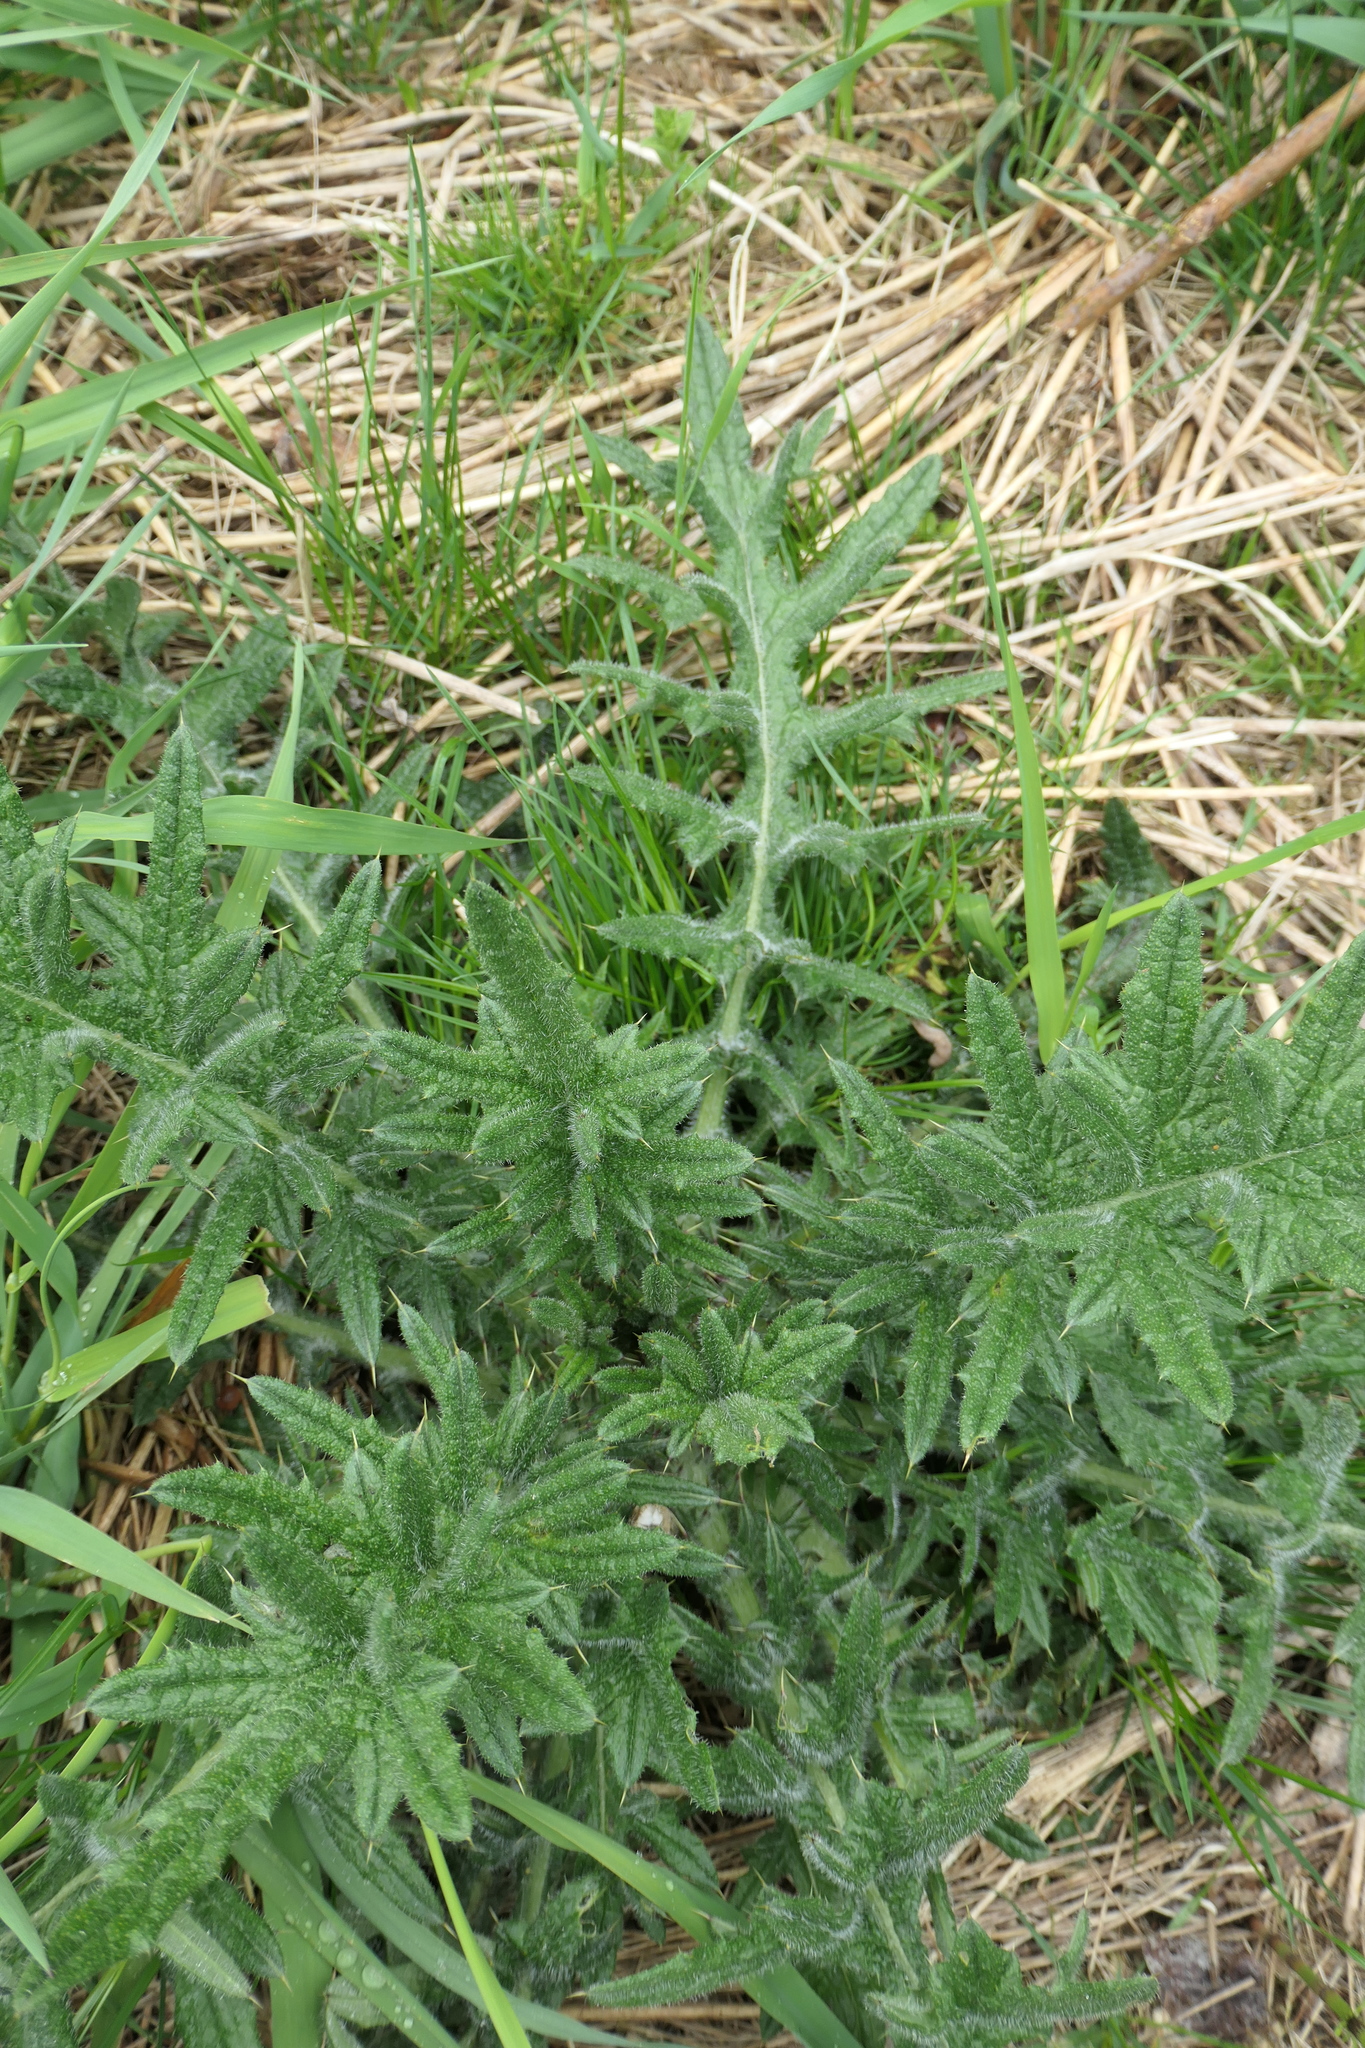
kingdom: Plantae
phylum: Tracheophyta
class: Magnoliopsida
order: Asterales
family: Asteraceae
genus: Cirsium
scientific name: Cirsium vulgare
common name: Bull thistle
